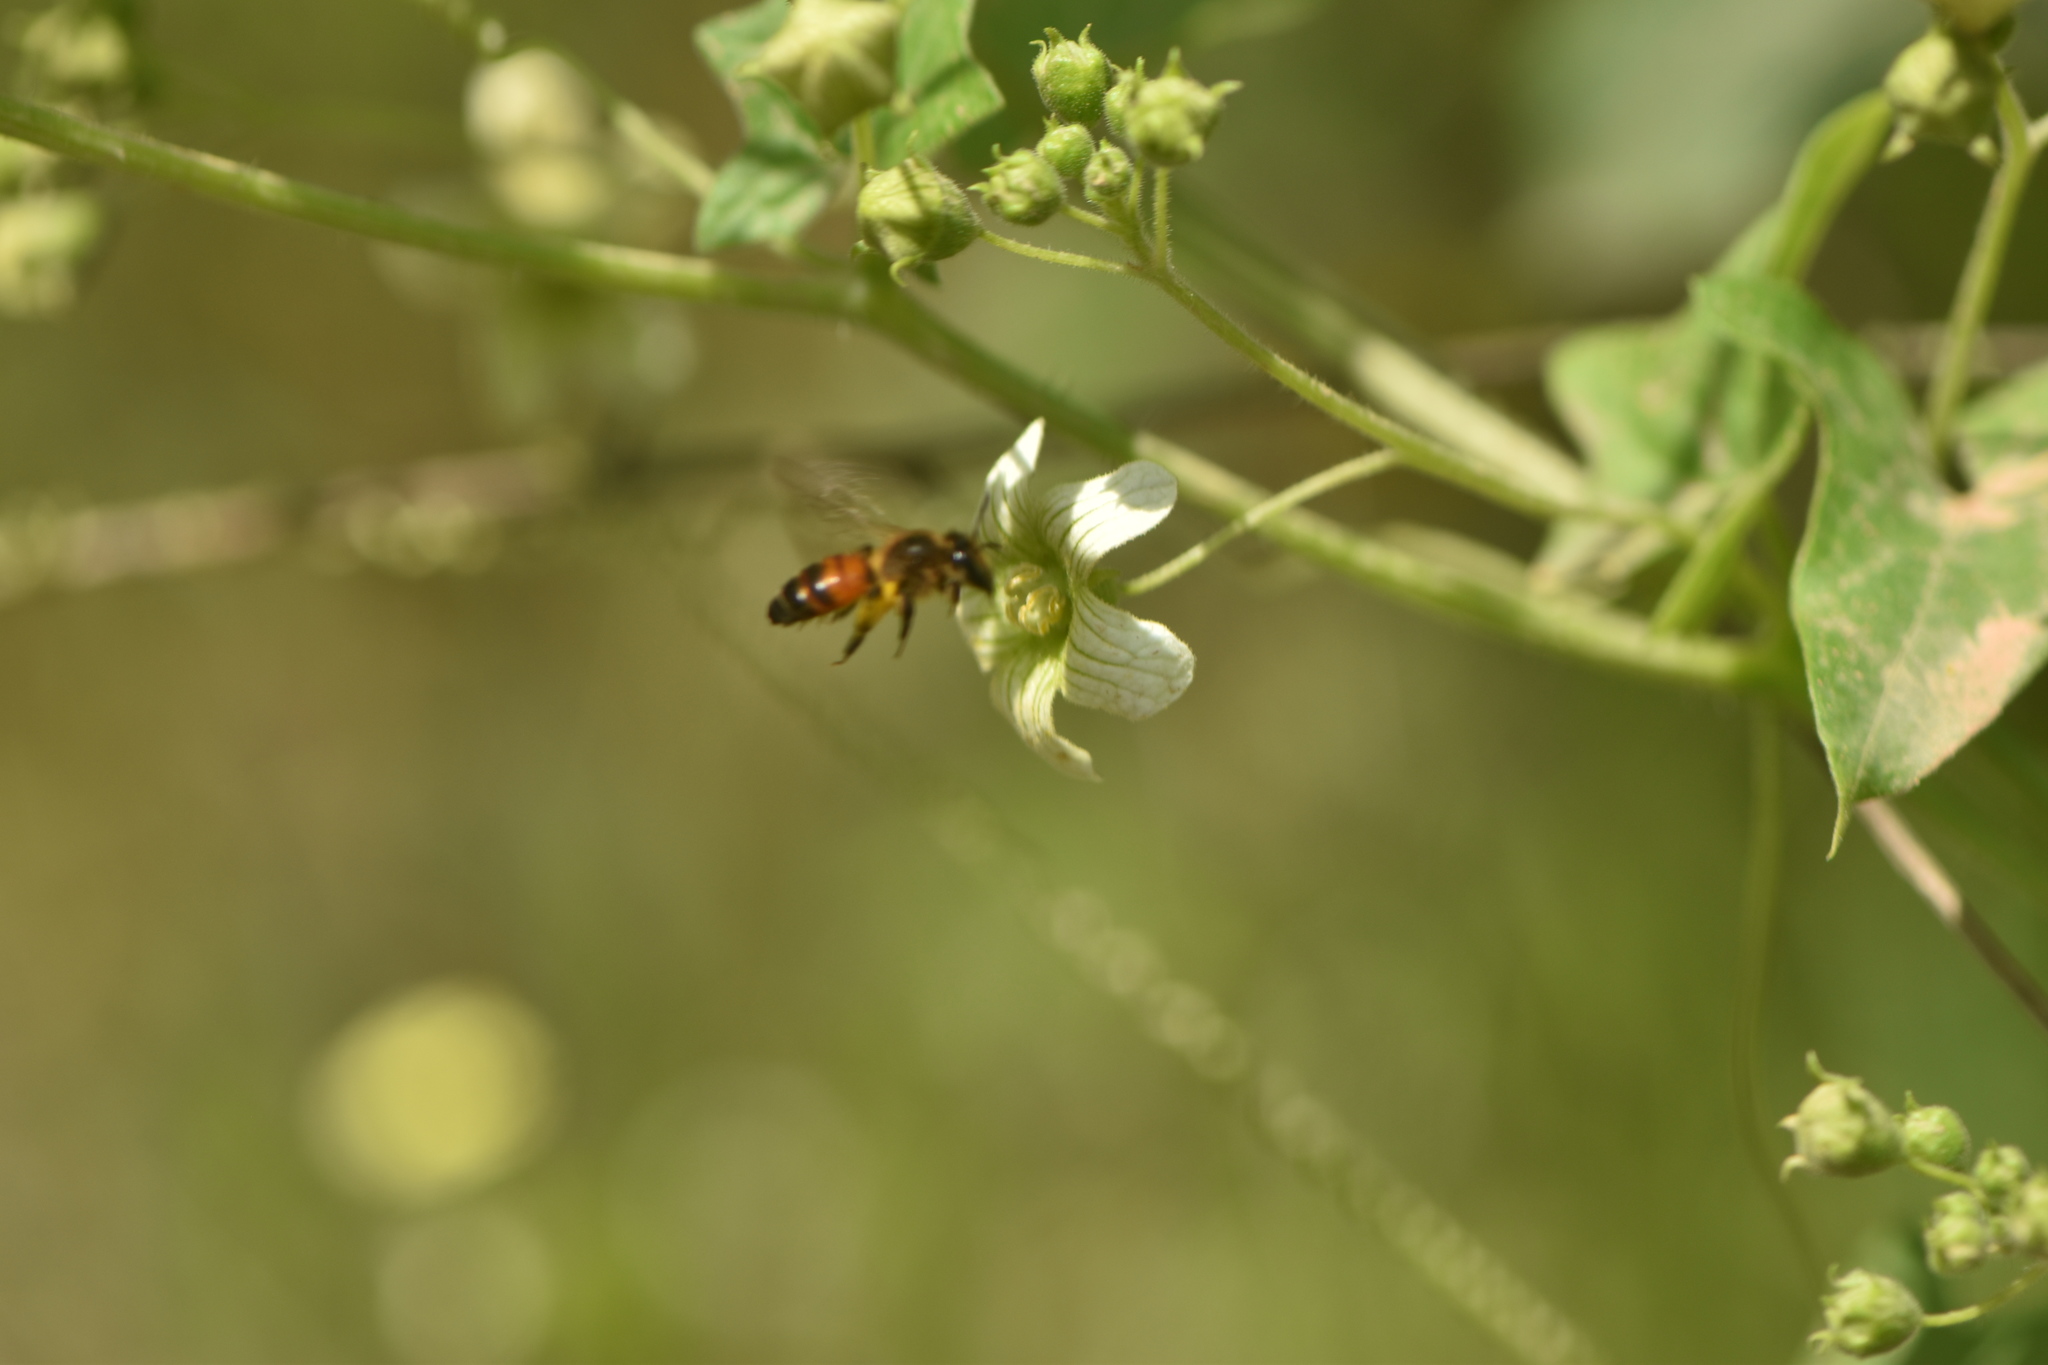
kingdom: Animalia
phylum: Arthropoda
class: Insecta
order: Hymenoptera
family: Andrenidae
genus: Andrena
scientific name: Andrena florea
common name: Bryony mining bee
